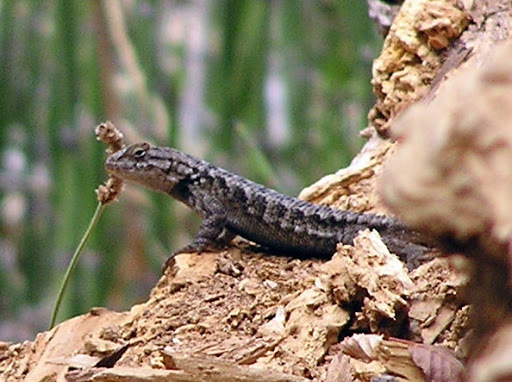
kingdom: Animalia
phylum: Chordata
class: Squamata
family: Phrynosomatidae
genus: Sceloporus
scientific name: Sceloporus occidentalis
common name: Western fence lizard
